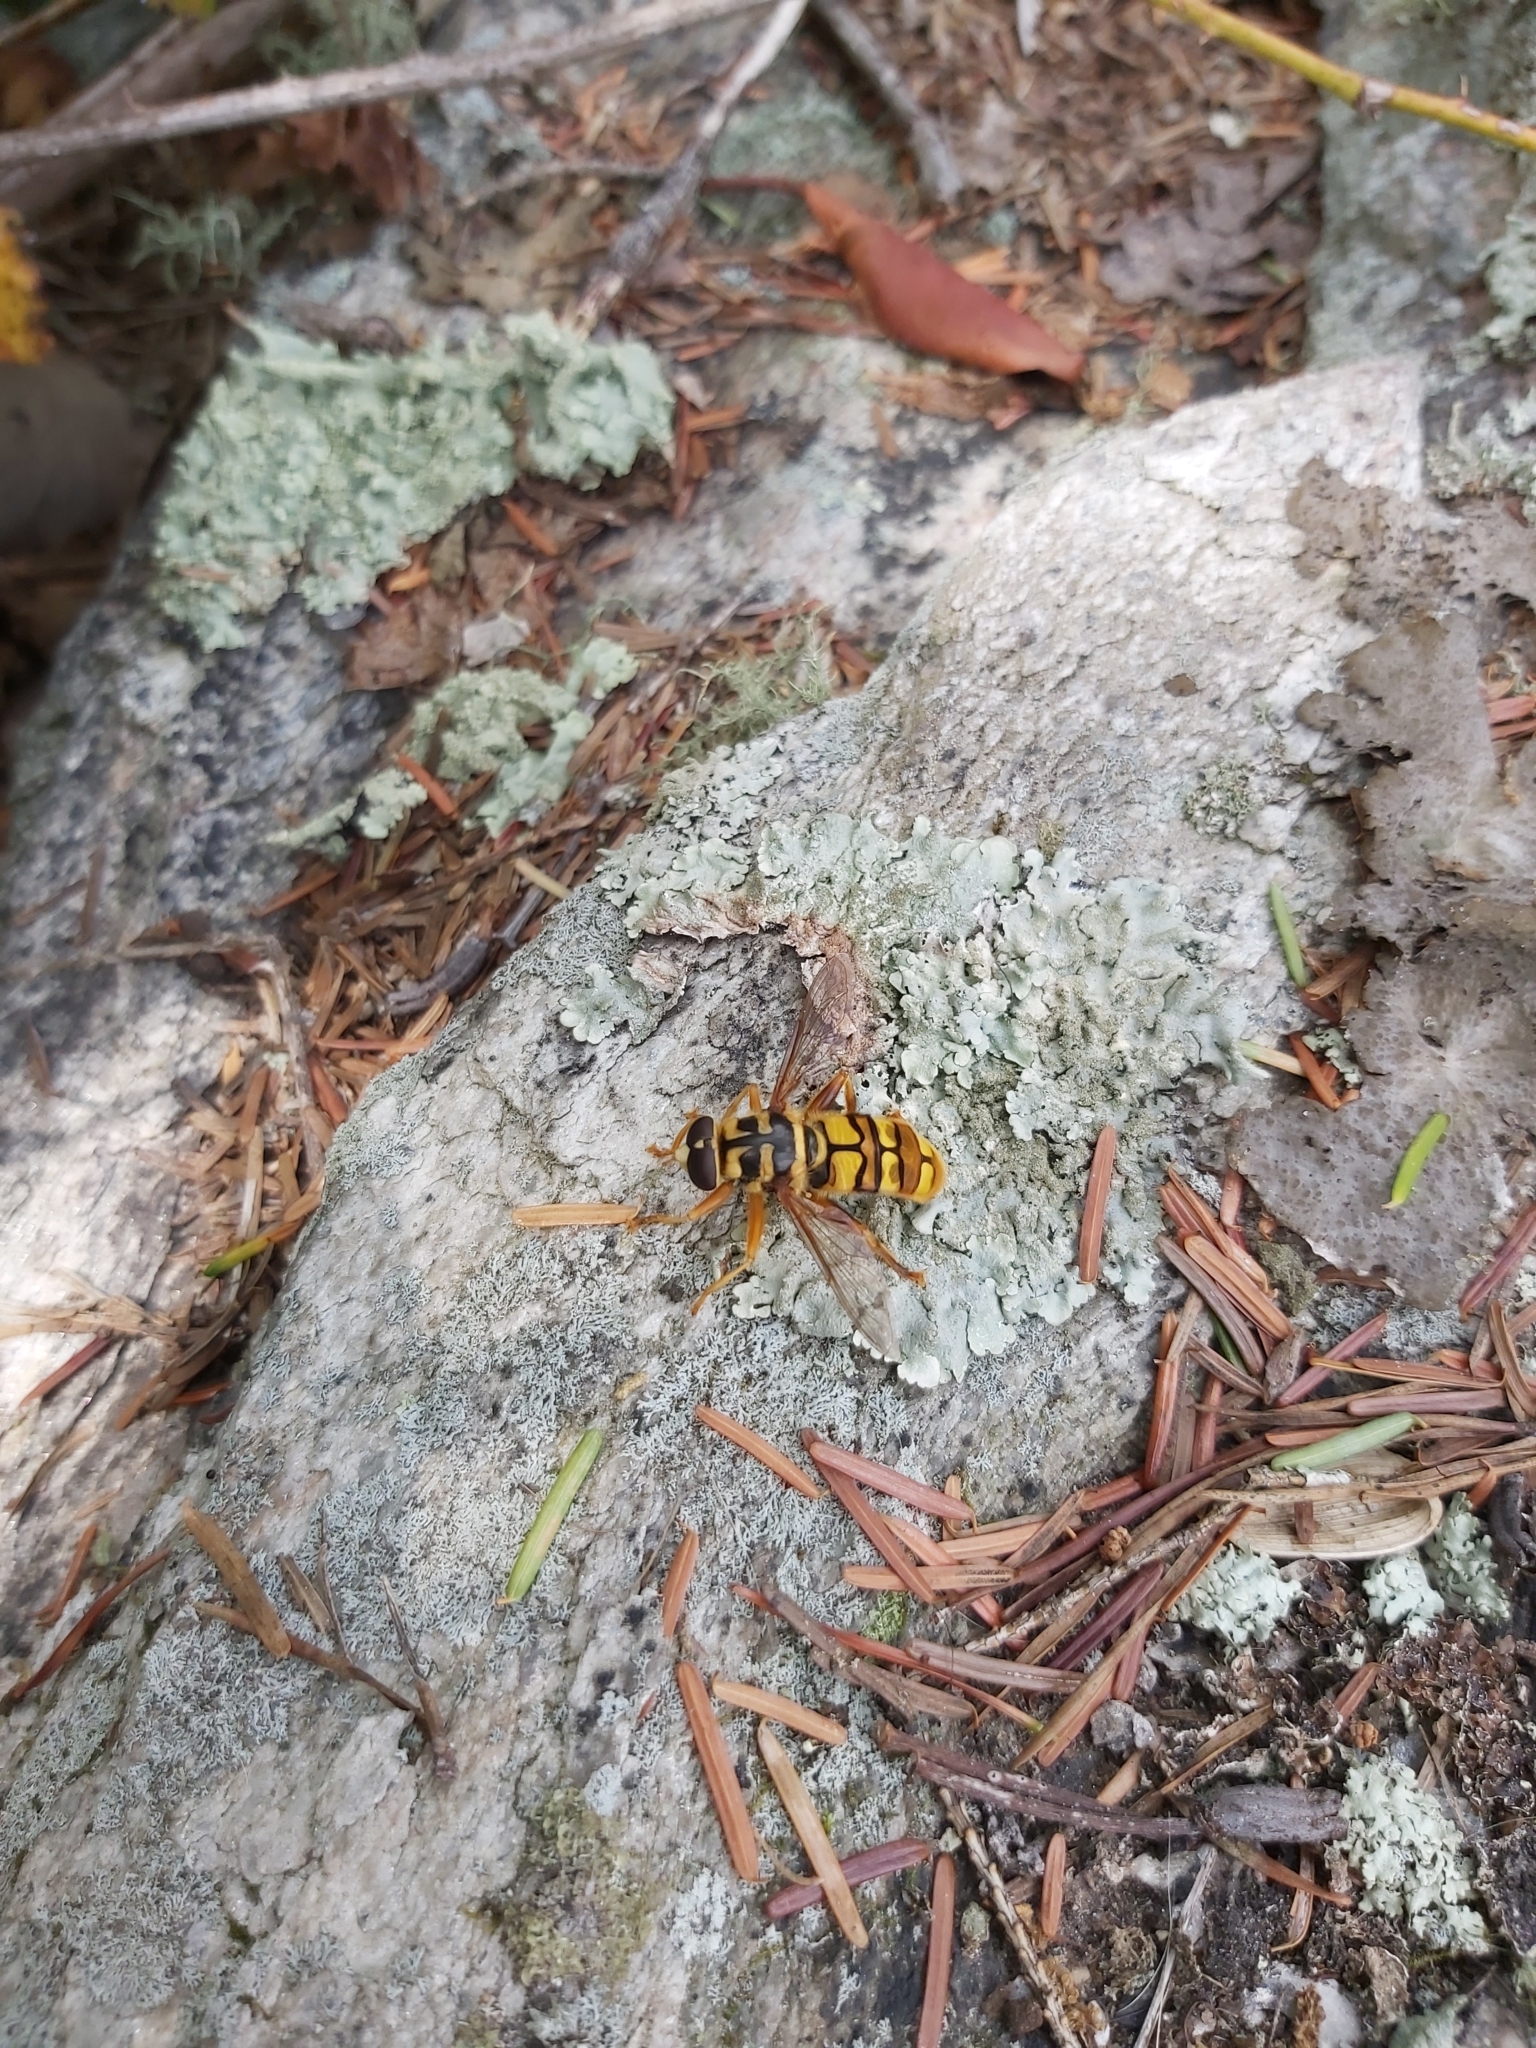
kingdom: Animalia
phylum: Arthropoda
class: Insecta
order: Diptera
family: Syrphidae
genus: Milesia
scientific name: Milesia virginiensis
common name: Virginia giant
